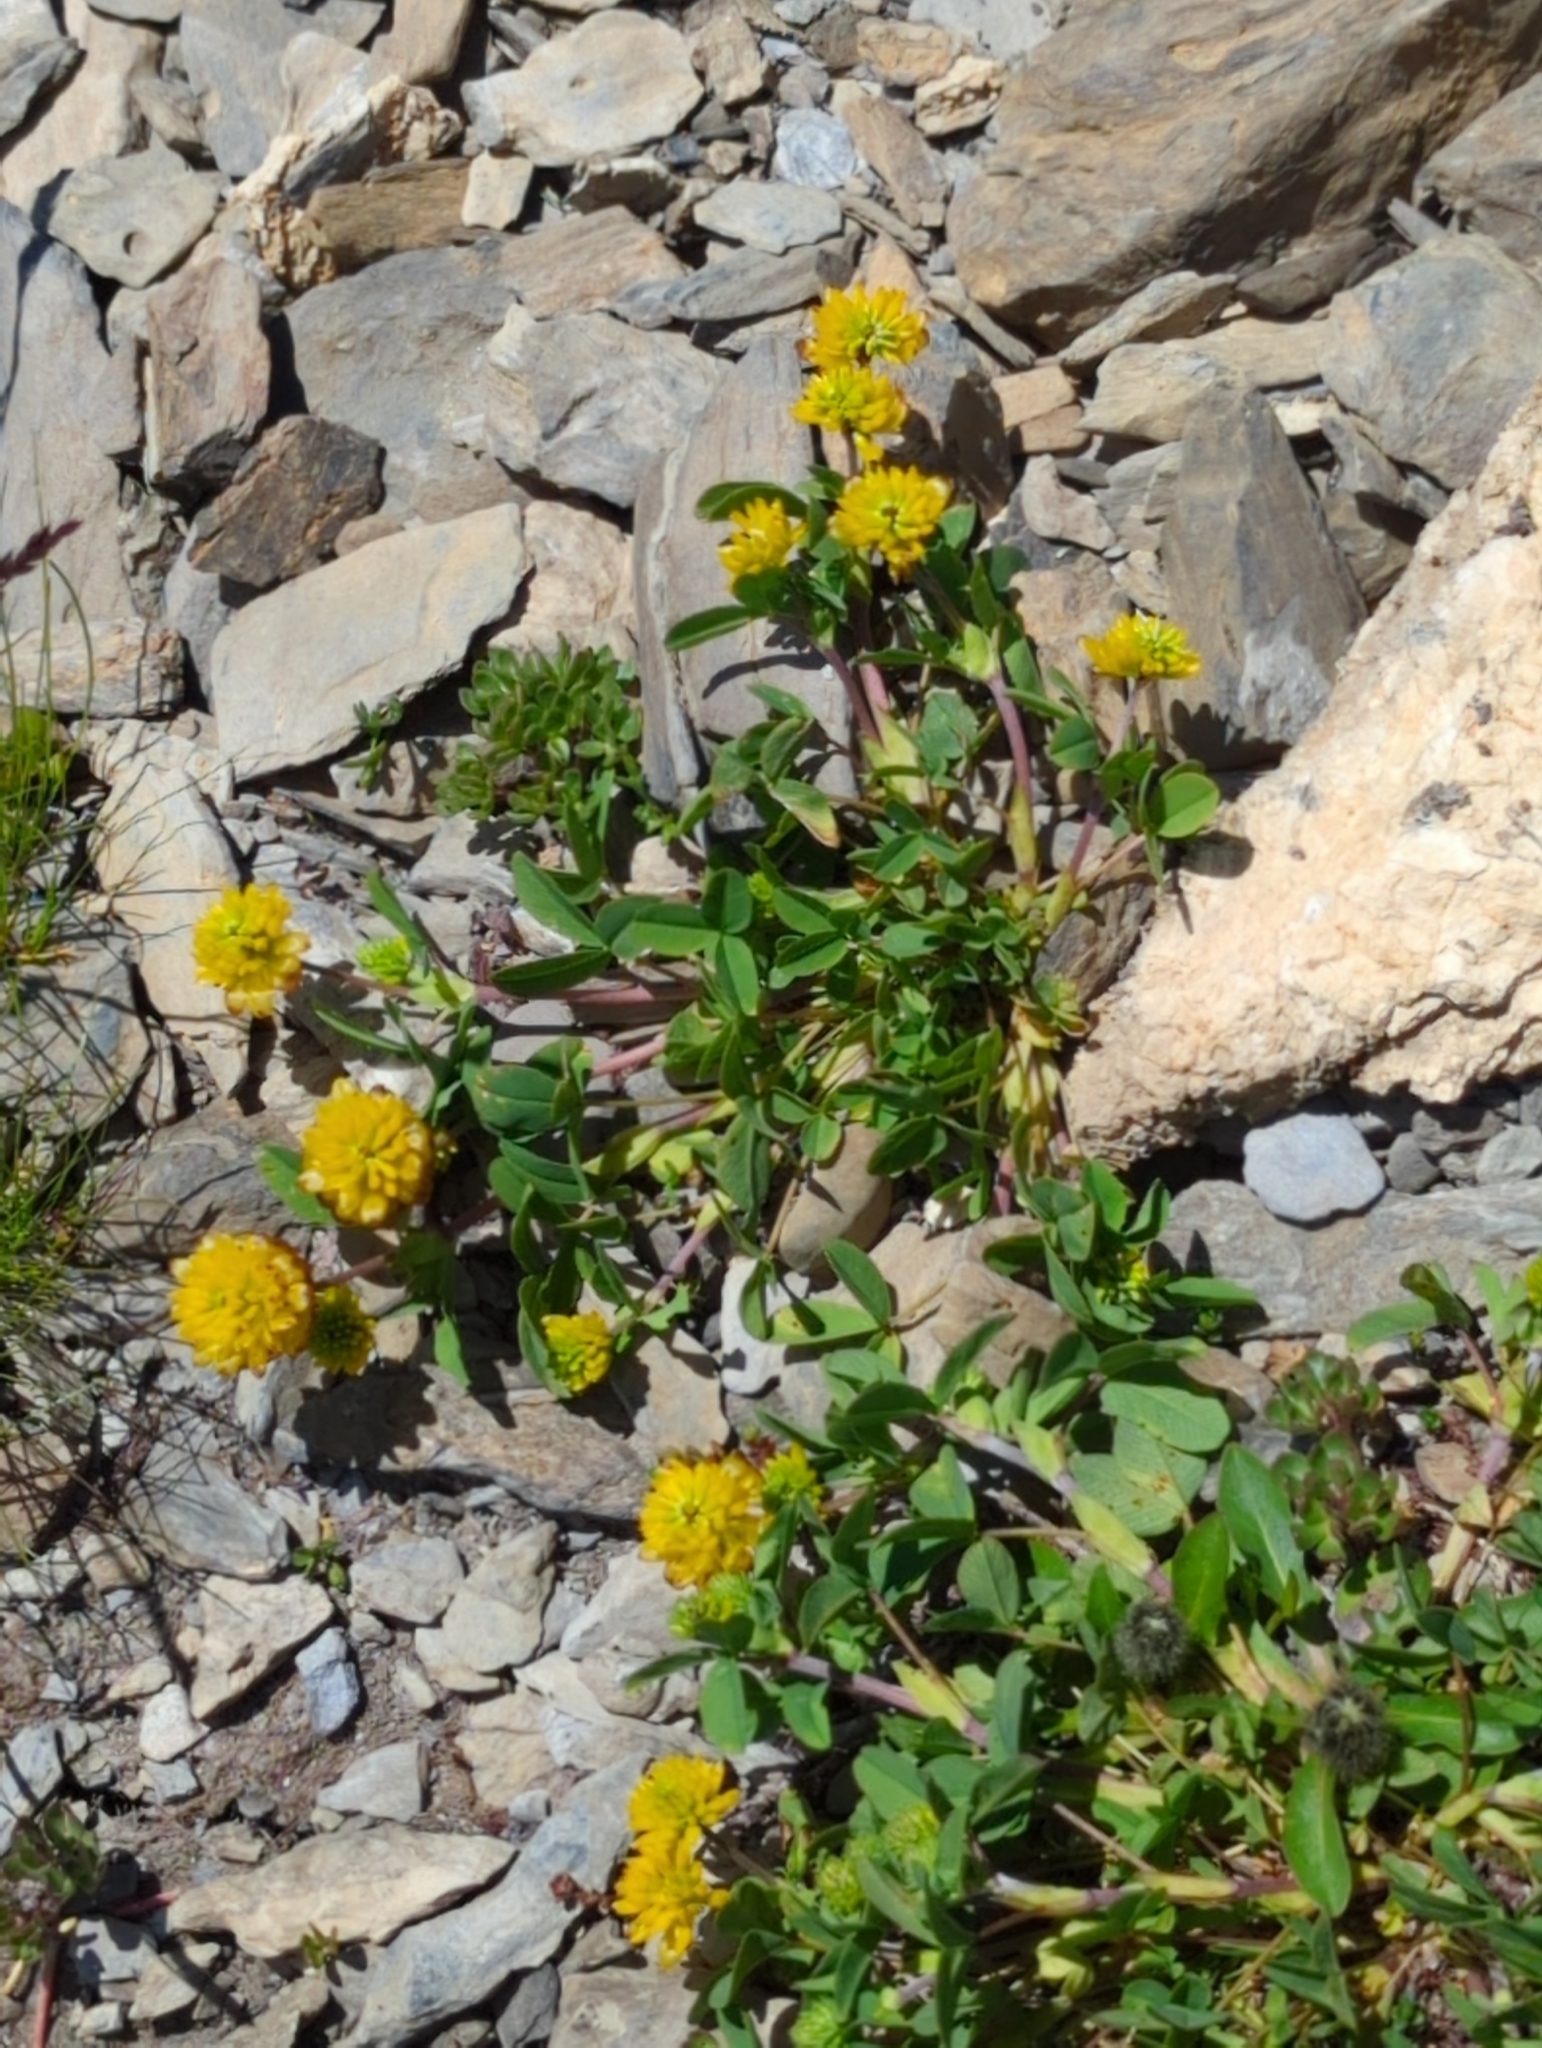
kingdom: Plantae
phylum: Tracheophyta
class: Magnoliopsida
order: Fabales
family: Fabaceae
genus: Trifolium
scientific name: Trifolium badium
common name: Brown clover
